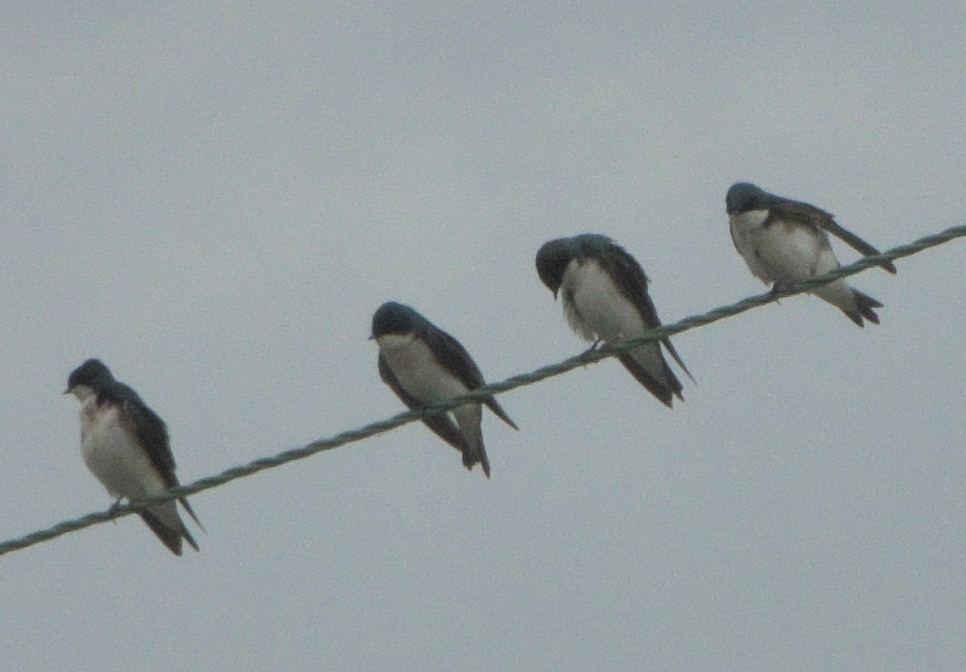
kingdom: Animalia
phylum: Chordata
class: Aves
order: Passeriformes
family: Hirundinidae
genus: Tachycineta
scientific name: Tachycineta bicolor
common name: Tree swallow
